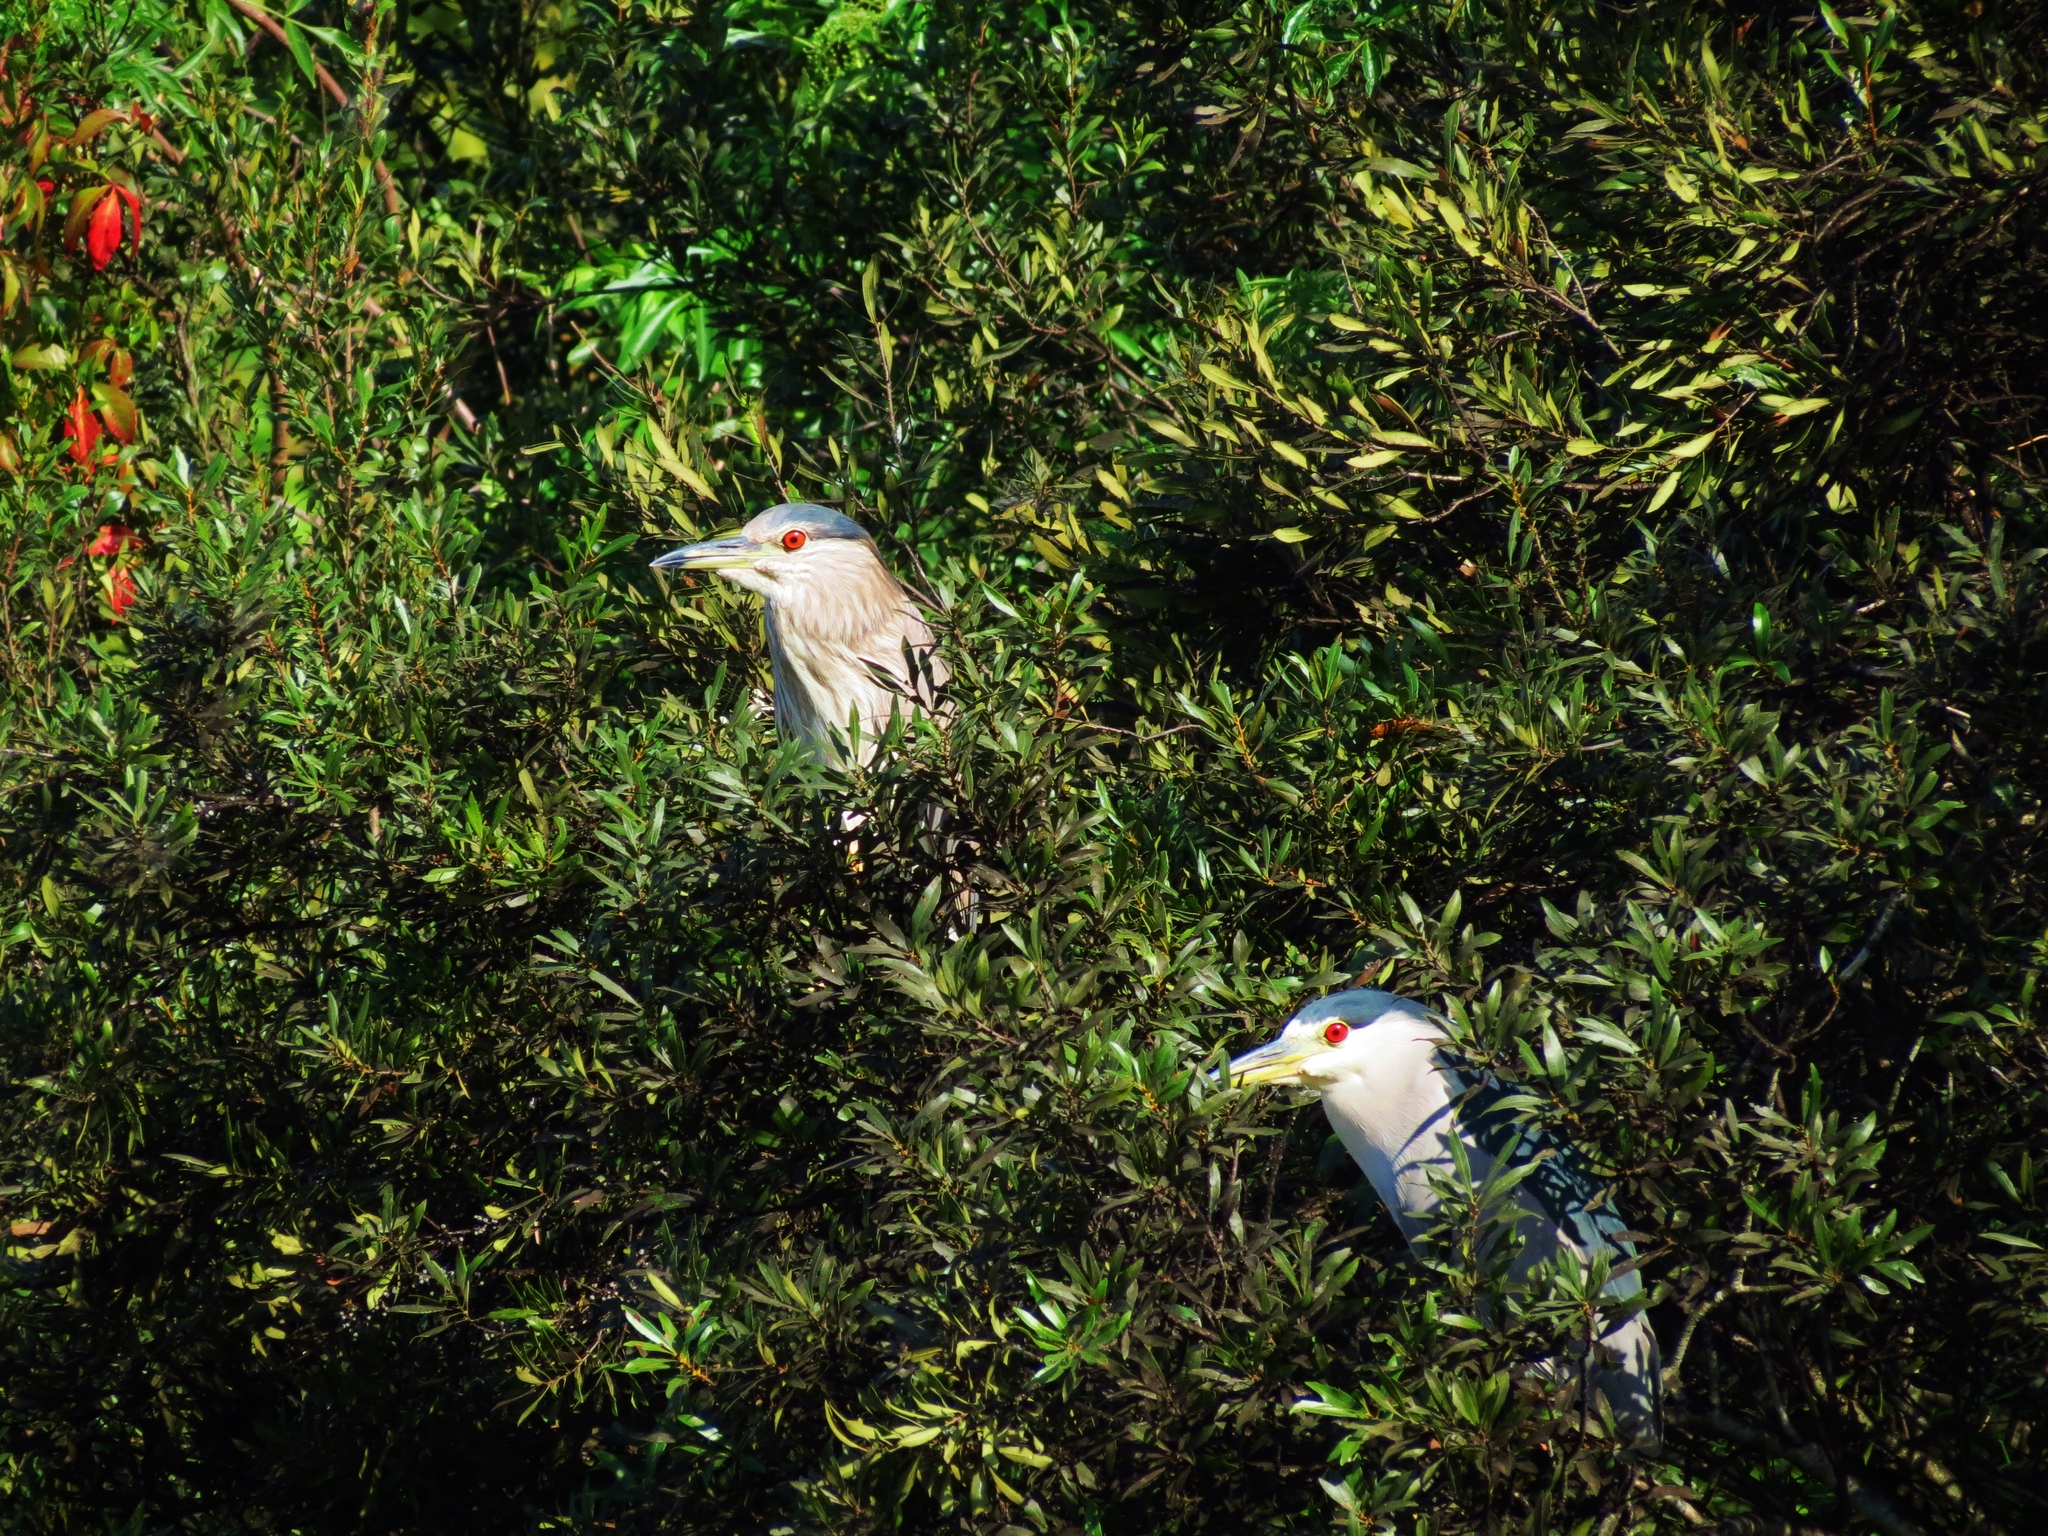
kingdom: Animalia
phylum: Chordata
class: Aves
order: Pelecaniformes
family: Ardeidae
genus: Nycticorax
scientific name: Nycticorax nycticorax
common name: Black-crowned night heron
